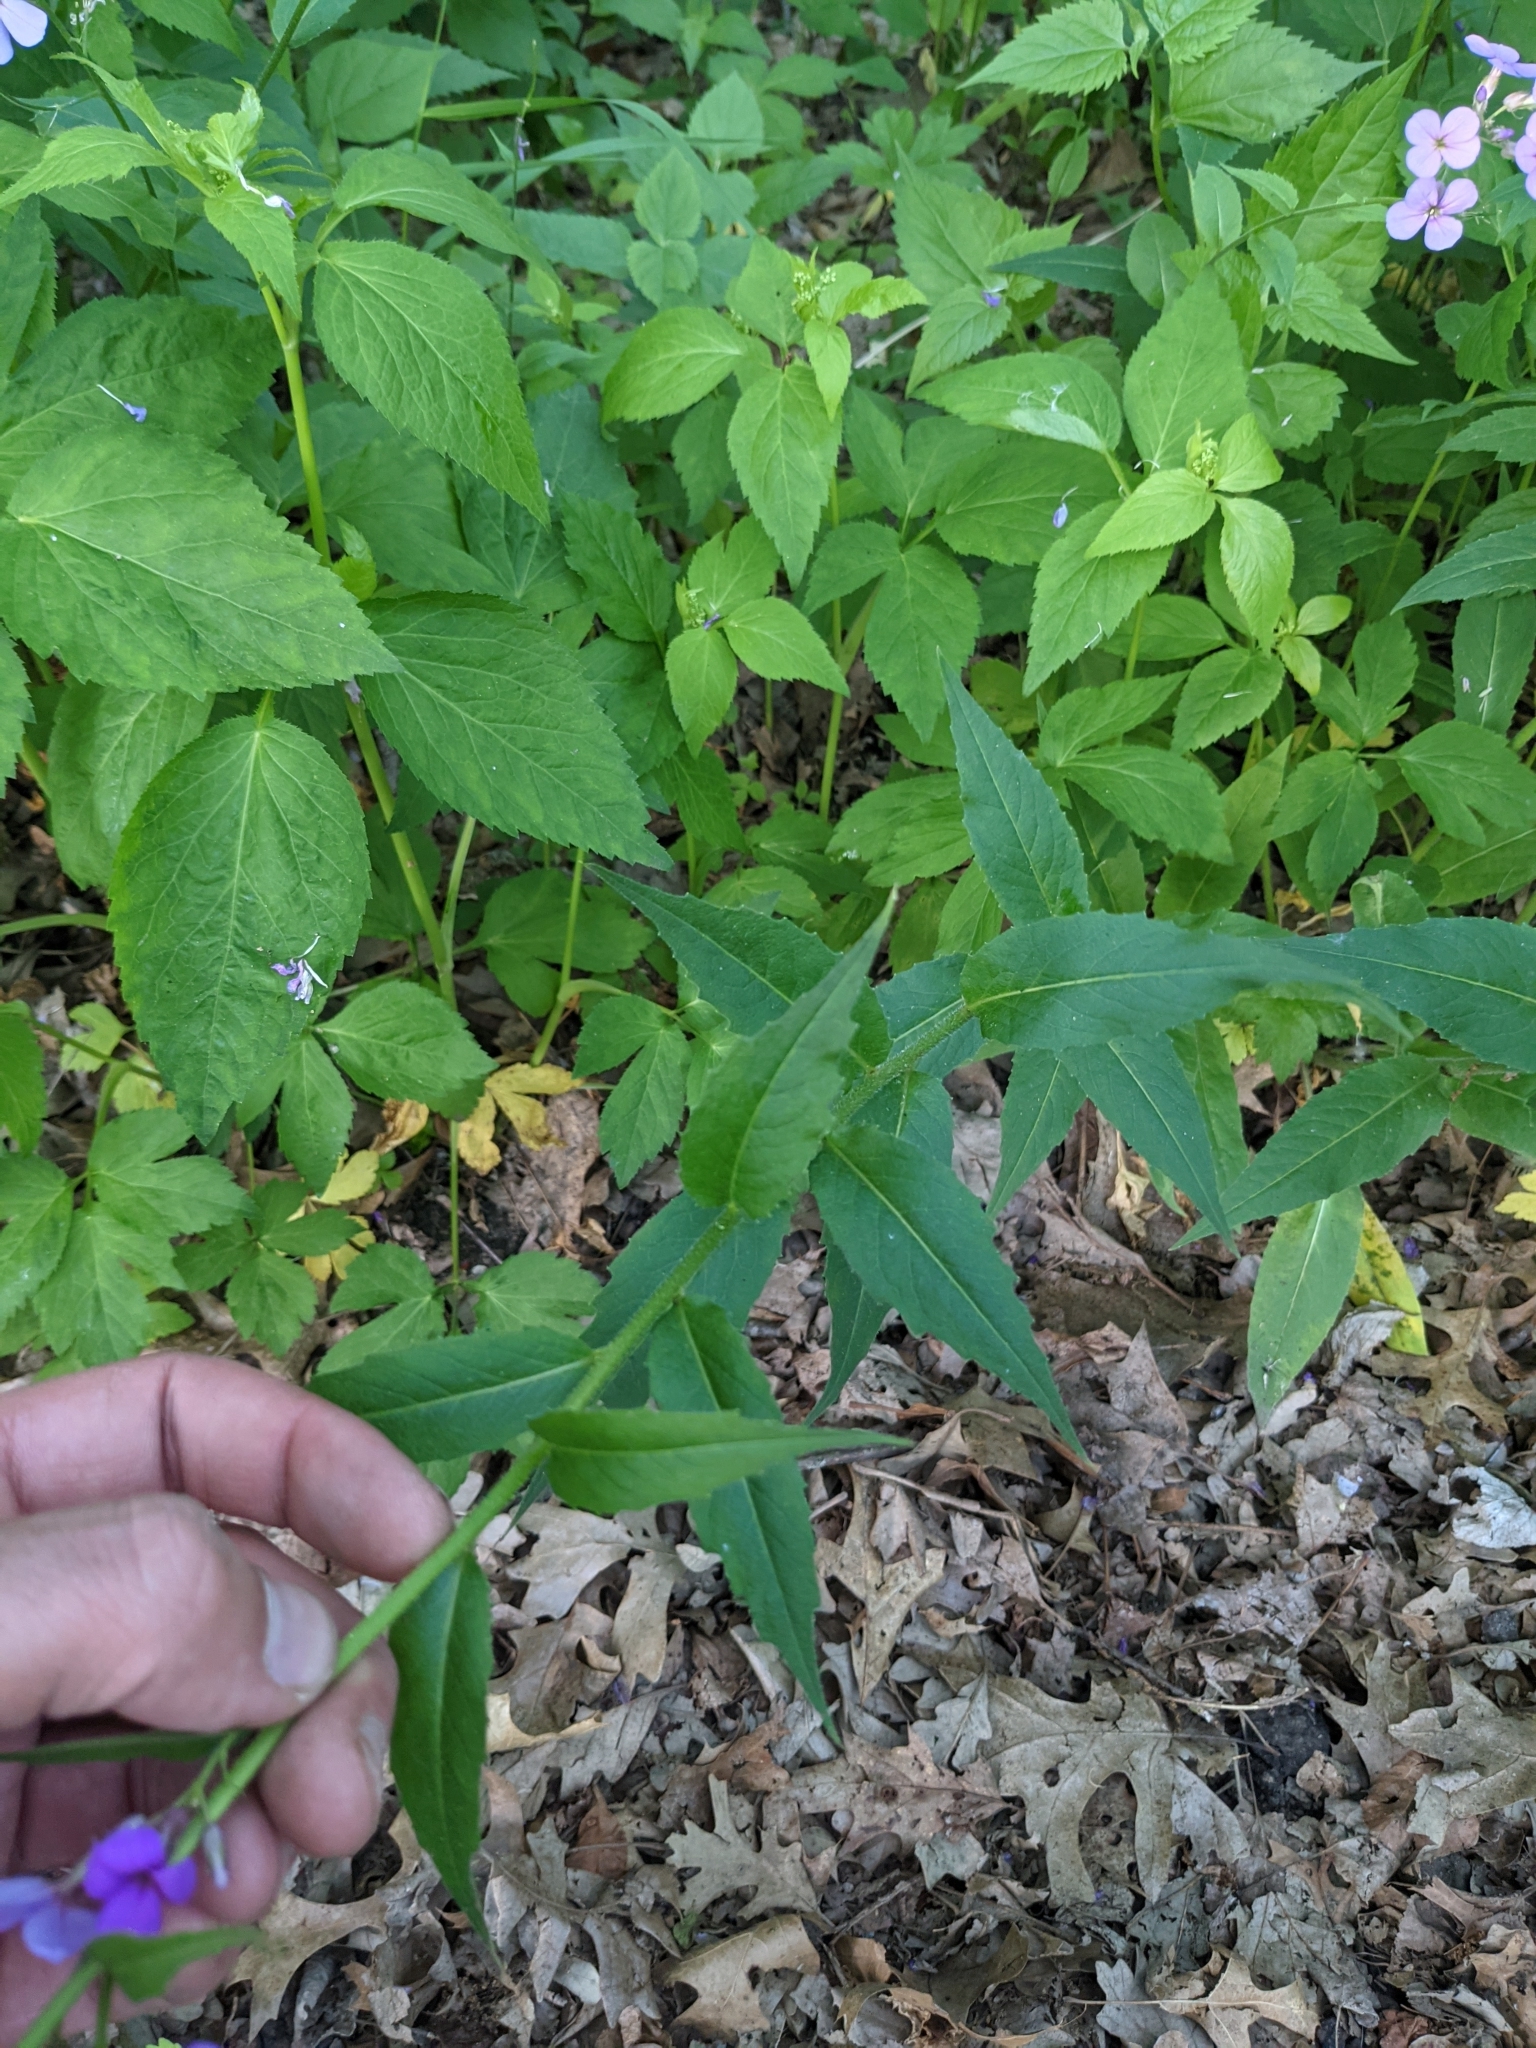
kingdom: Plantae
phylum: Tracheophyta
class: Magnoliopsida
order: Brassicales
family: Brassicaceae
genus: Hesperis
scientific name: Hesperis matronalis
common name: Dame's-violet
